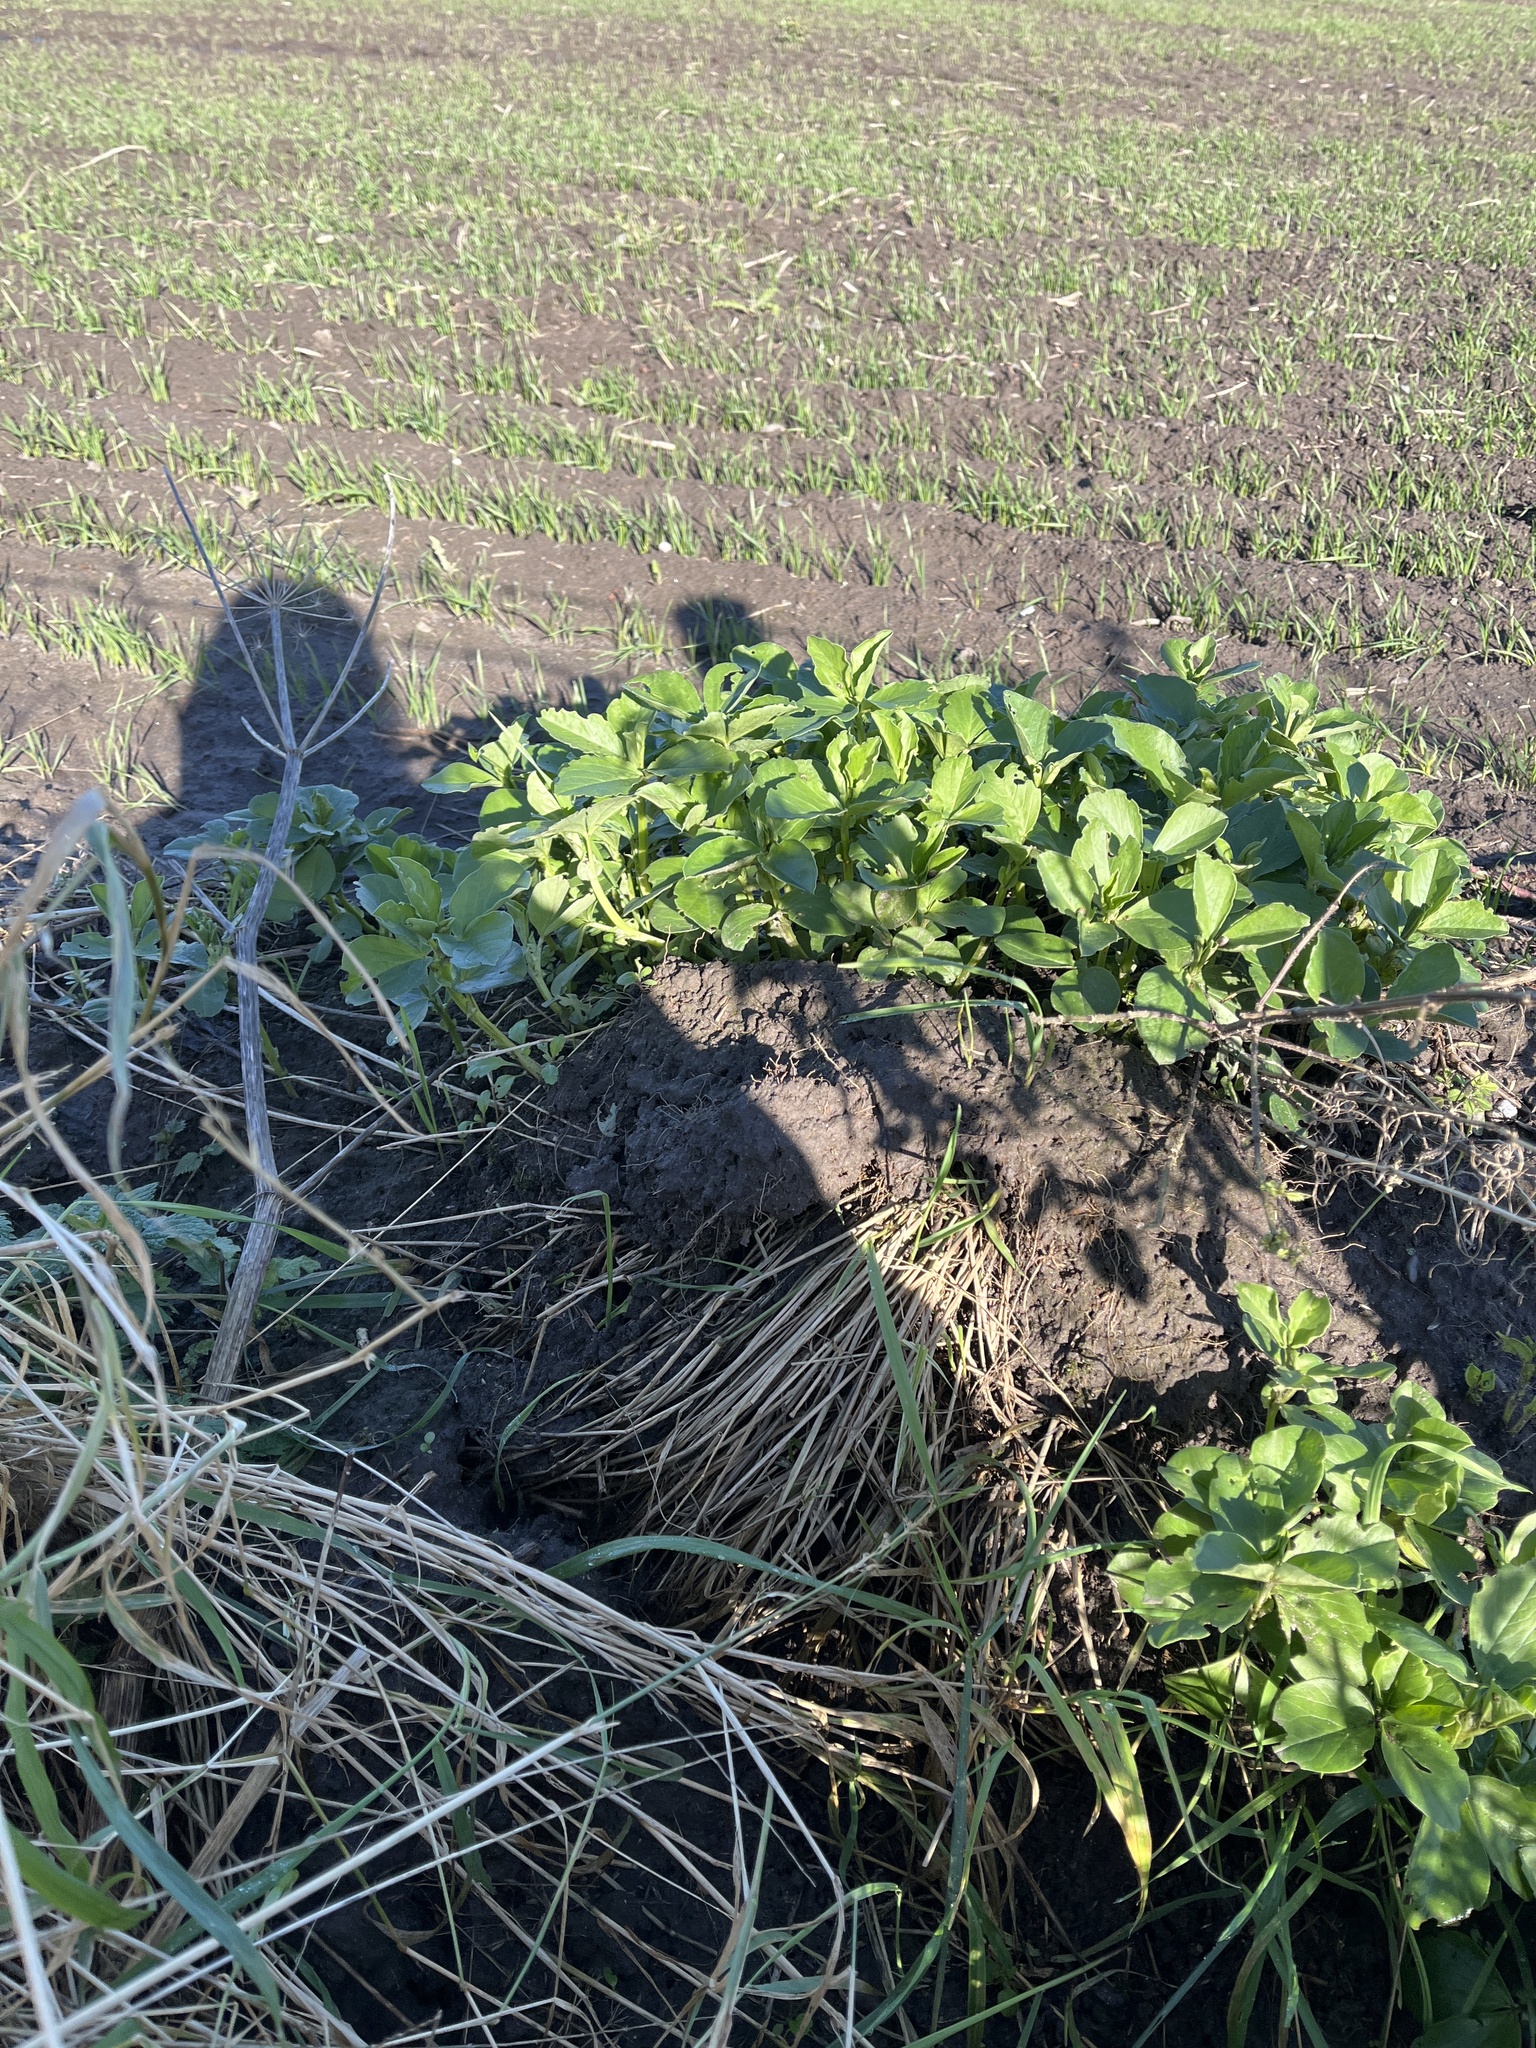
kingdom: Plantae
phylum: Tracheophyta
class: Magnoliopsida
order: Fabales
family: Fabaceae
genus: Vicia
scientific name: Vicia faba
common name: Broad bean
